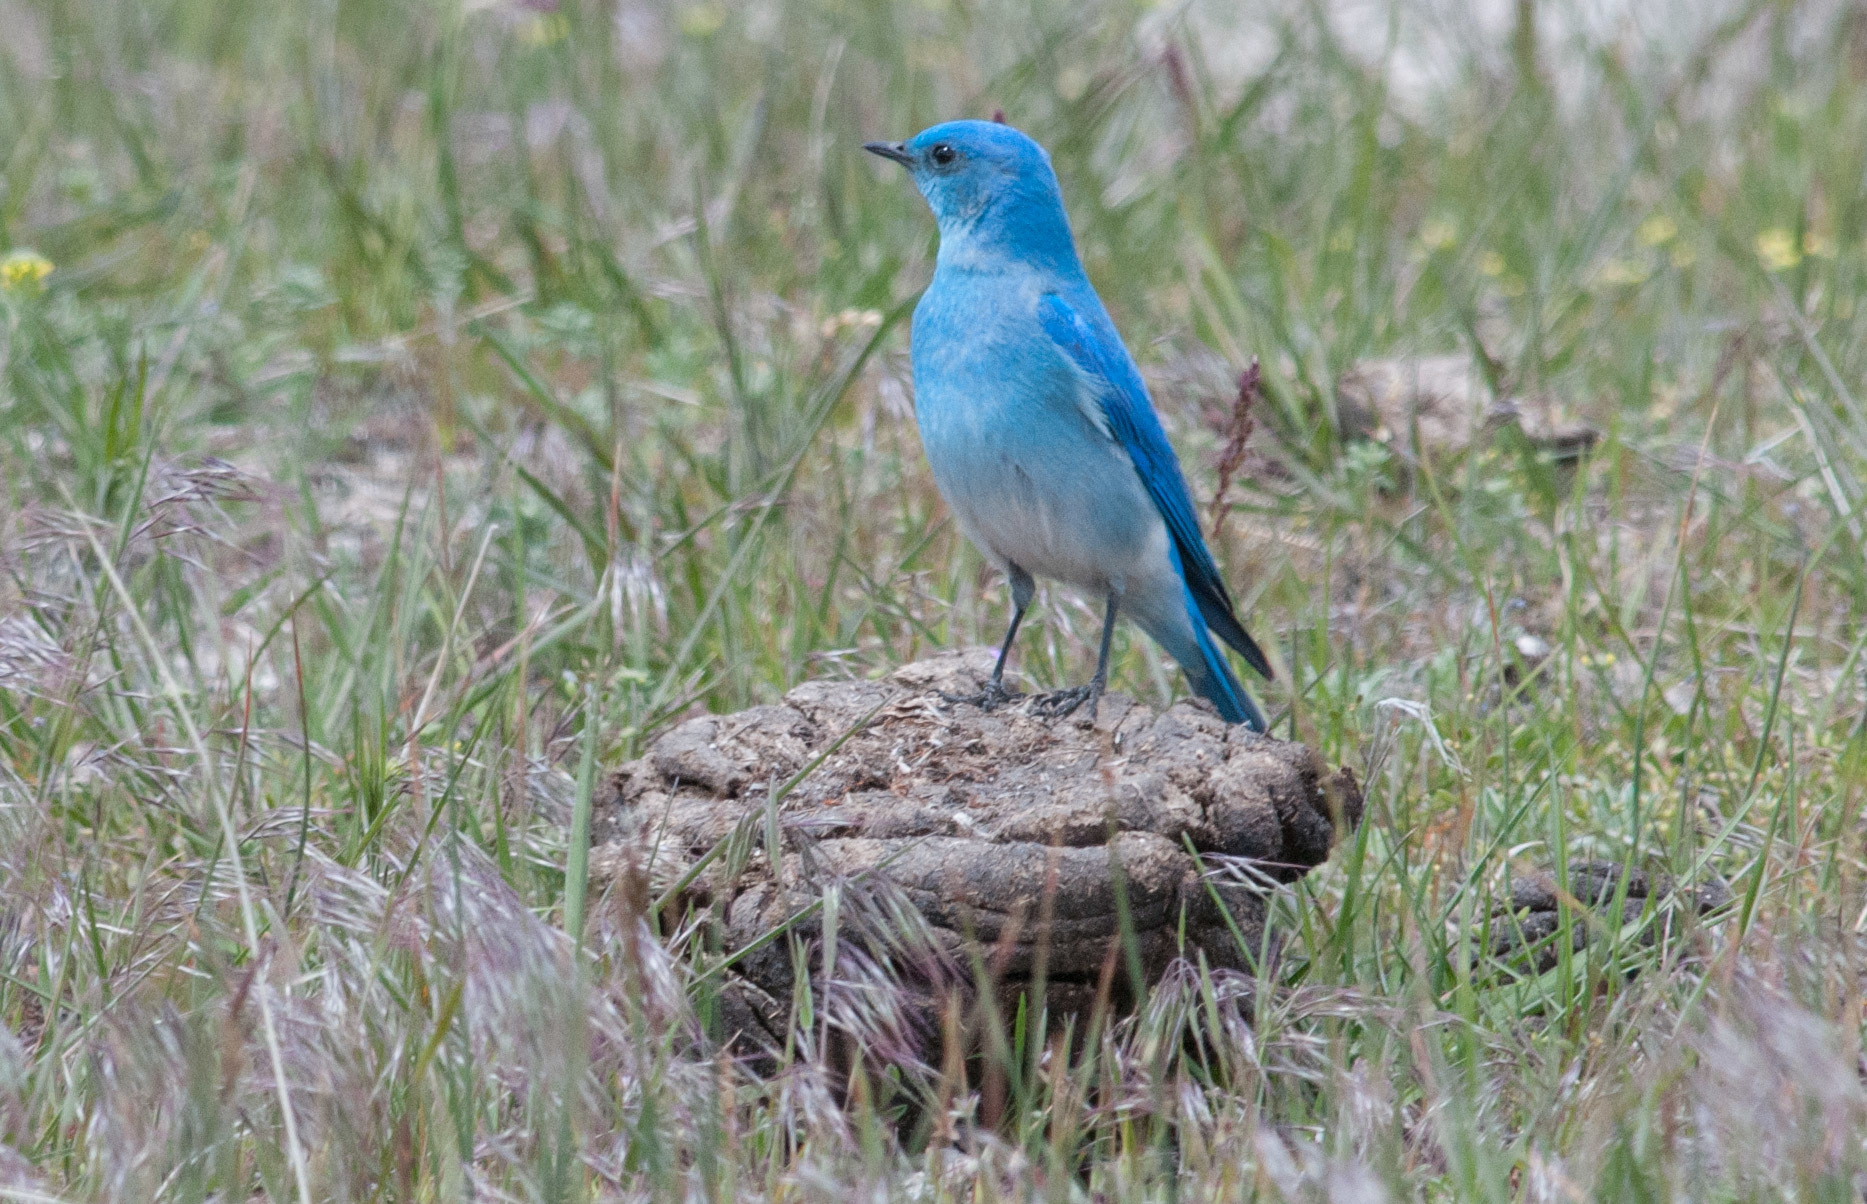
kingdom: Animalia
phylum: Chordata
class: Aves
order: Passeriformes
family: Turdidae
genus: Sialia
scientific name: Sialia currucoides
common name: Mountain bluebird
